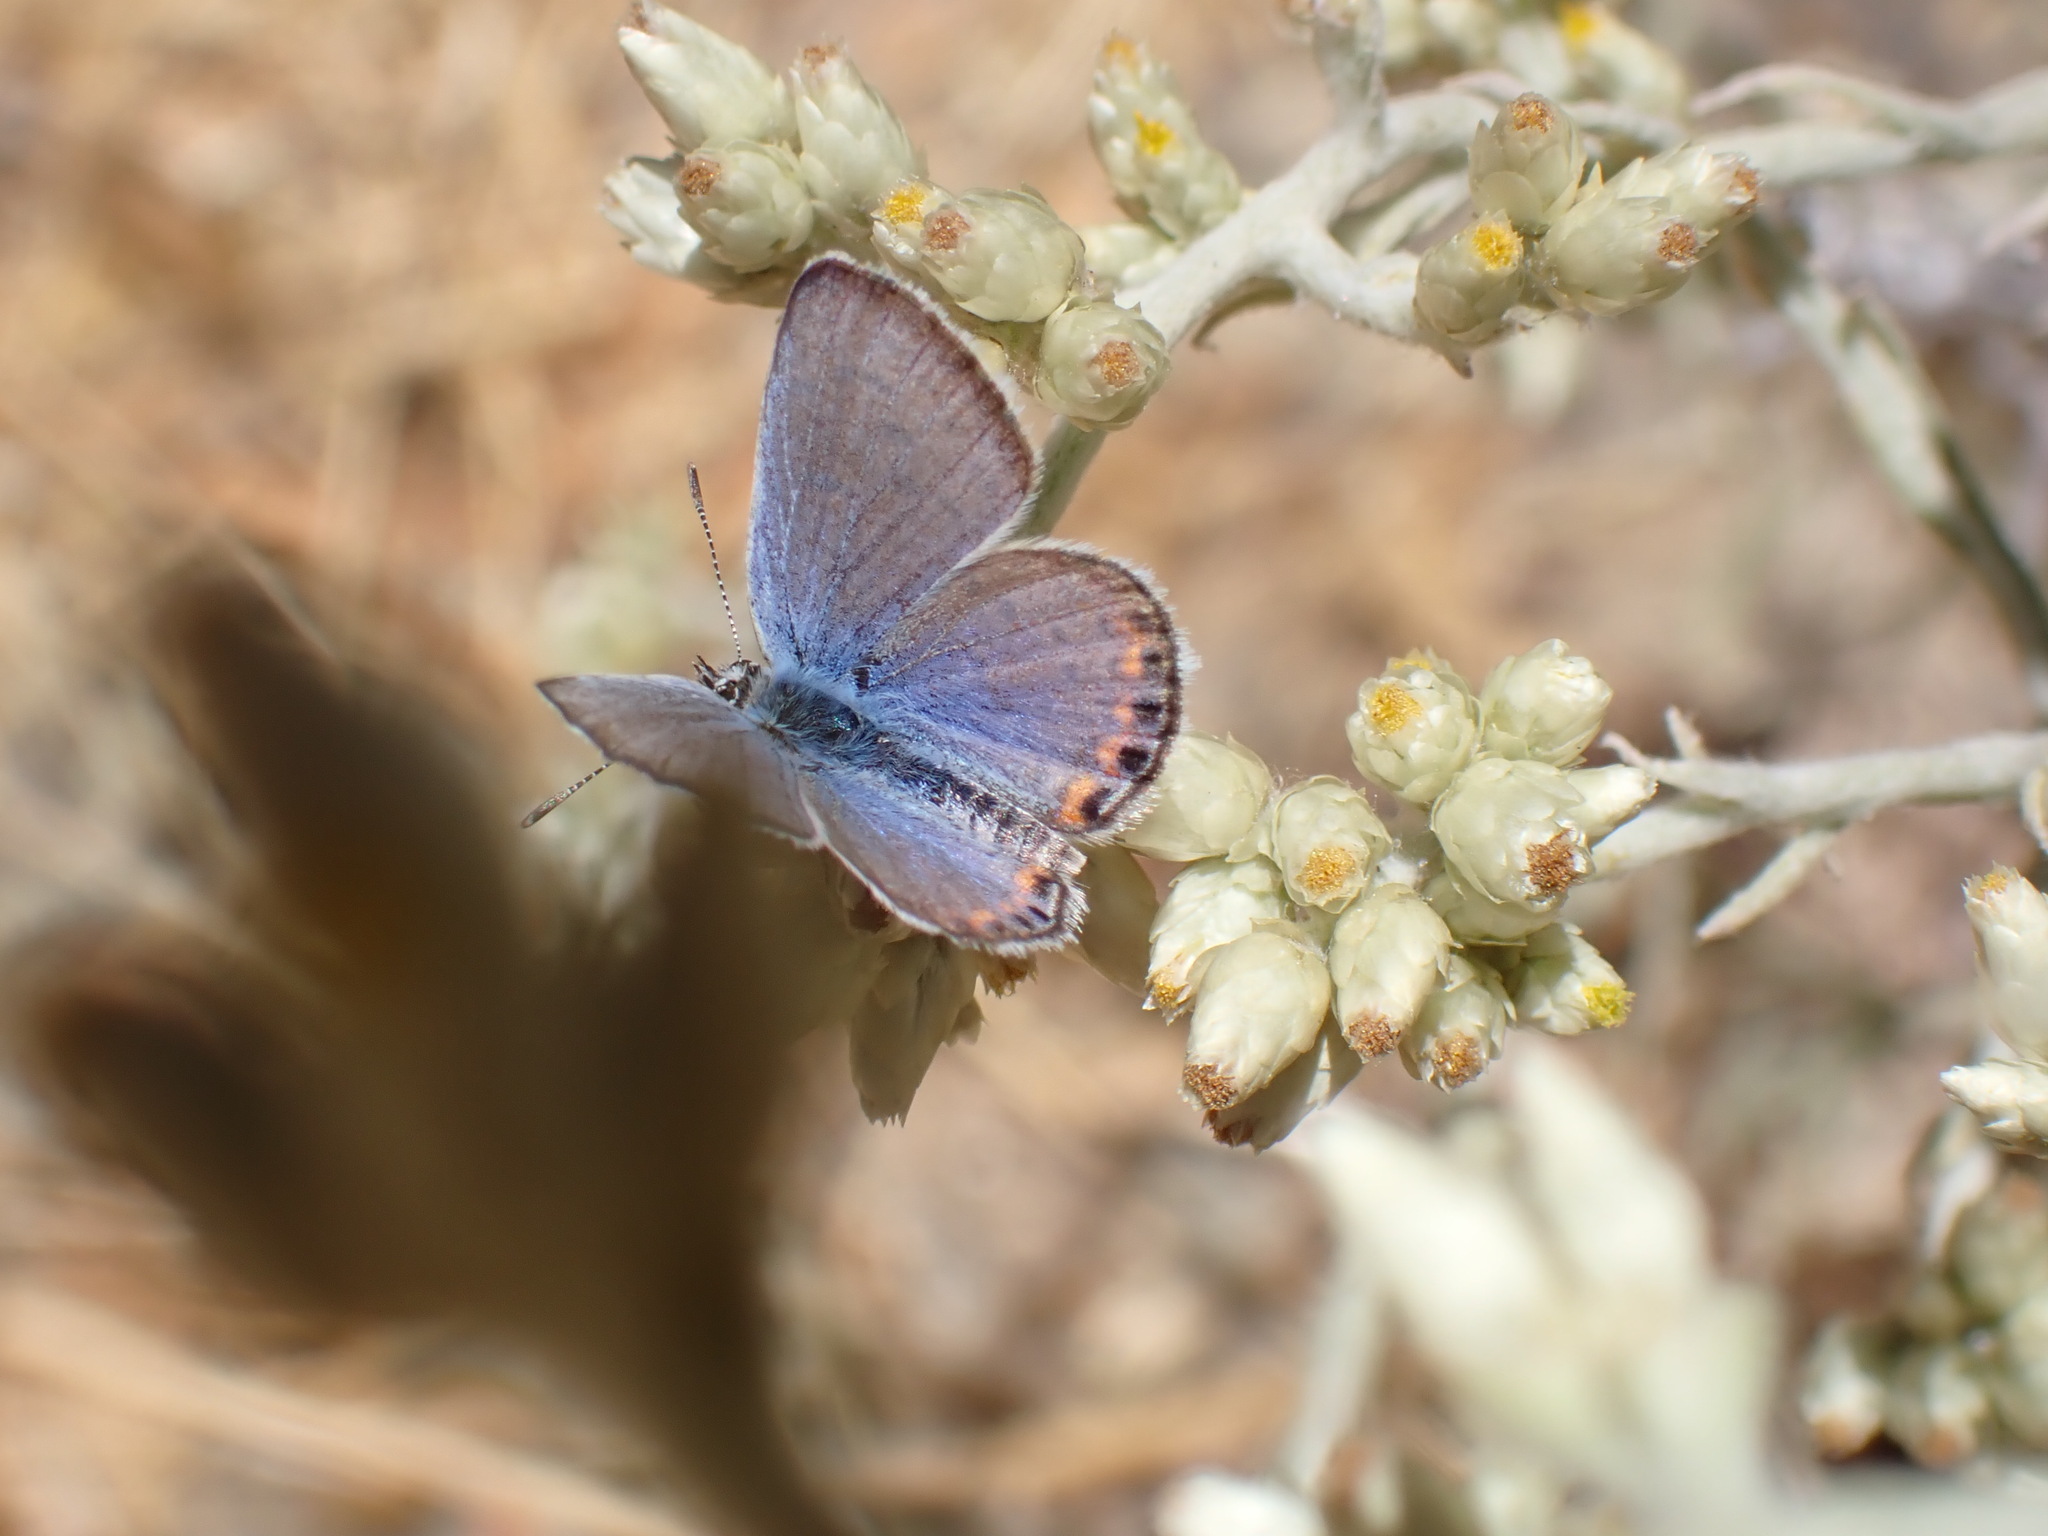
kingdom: Animalia
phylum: Arthropoda
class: Insecta
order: Lepidoptera
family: Lycaenidae
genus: Icaricia
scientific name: Icaricia acmon
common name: Acmon blue
